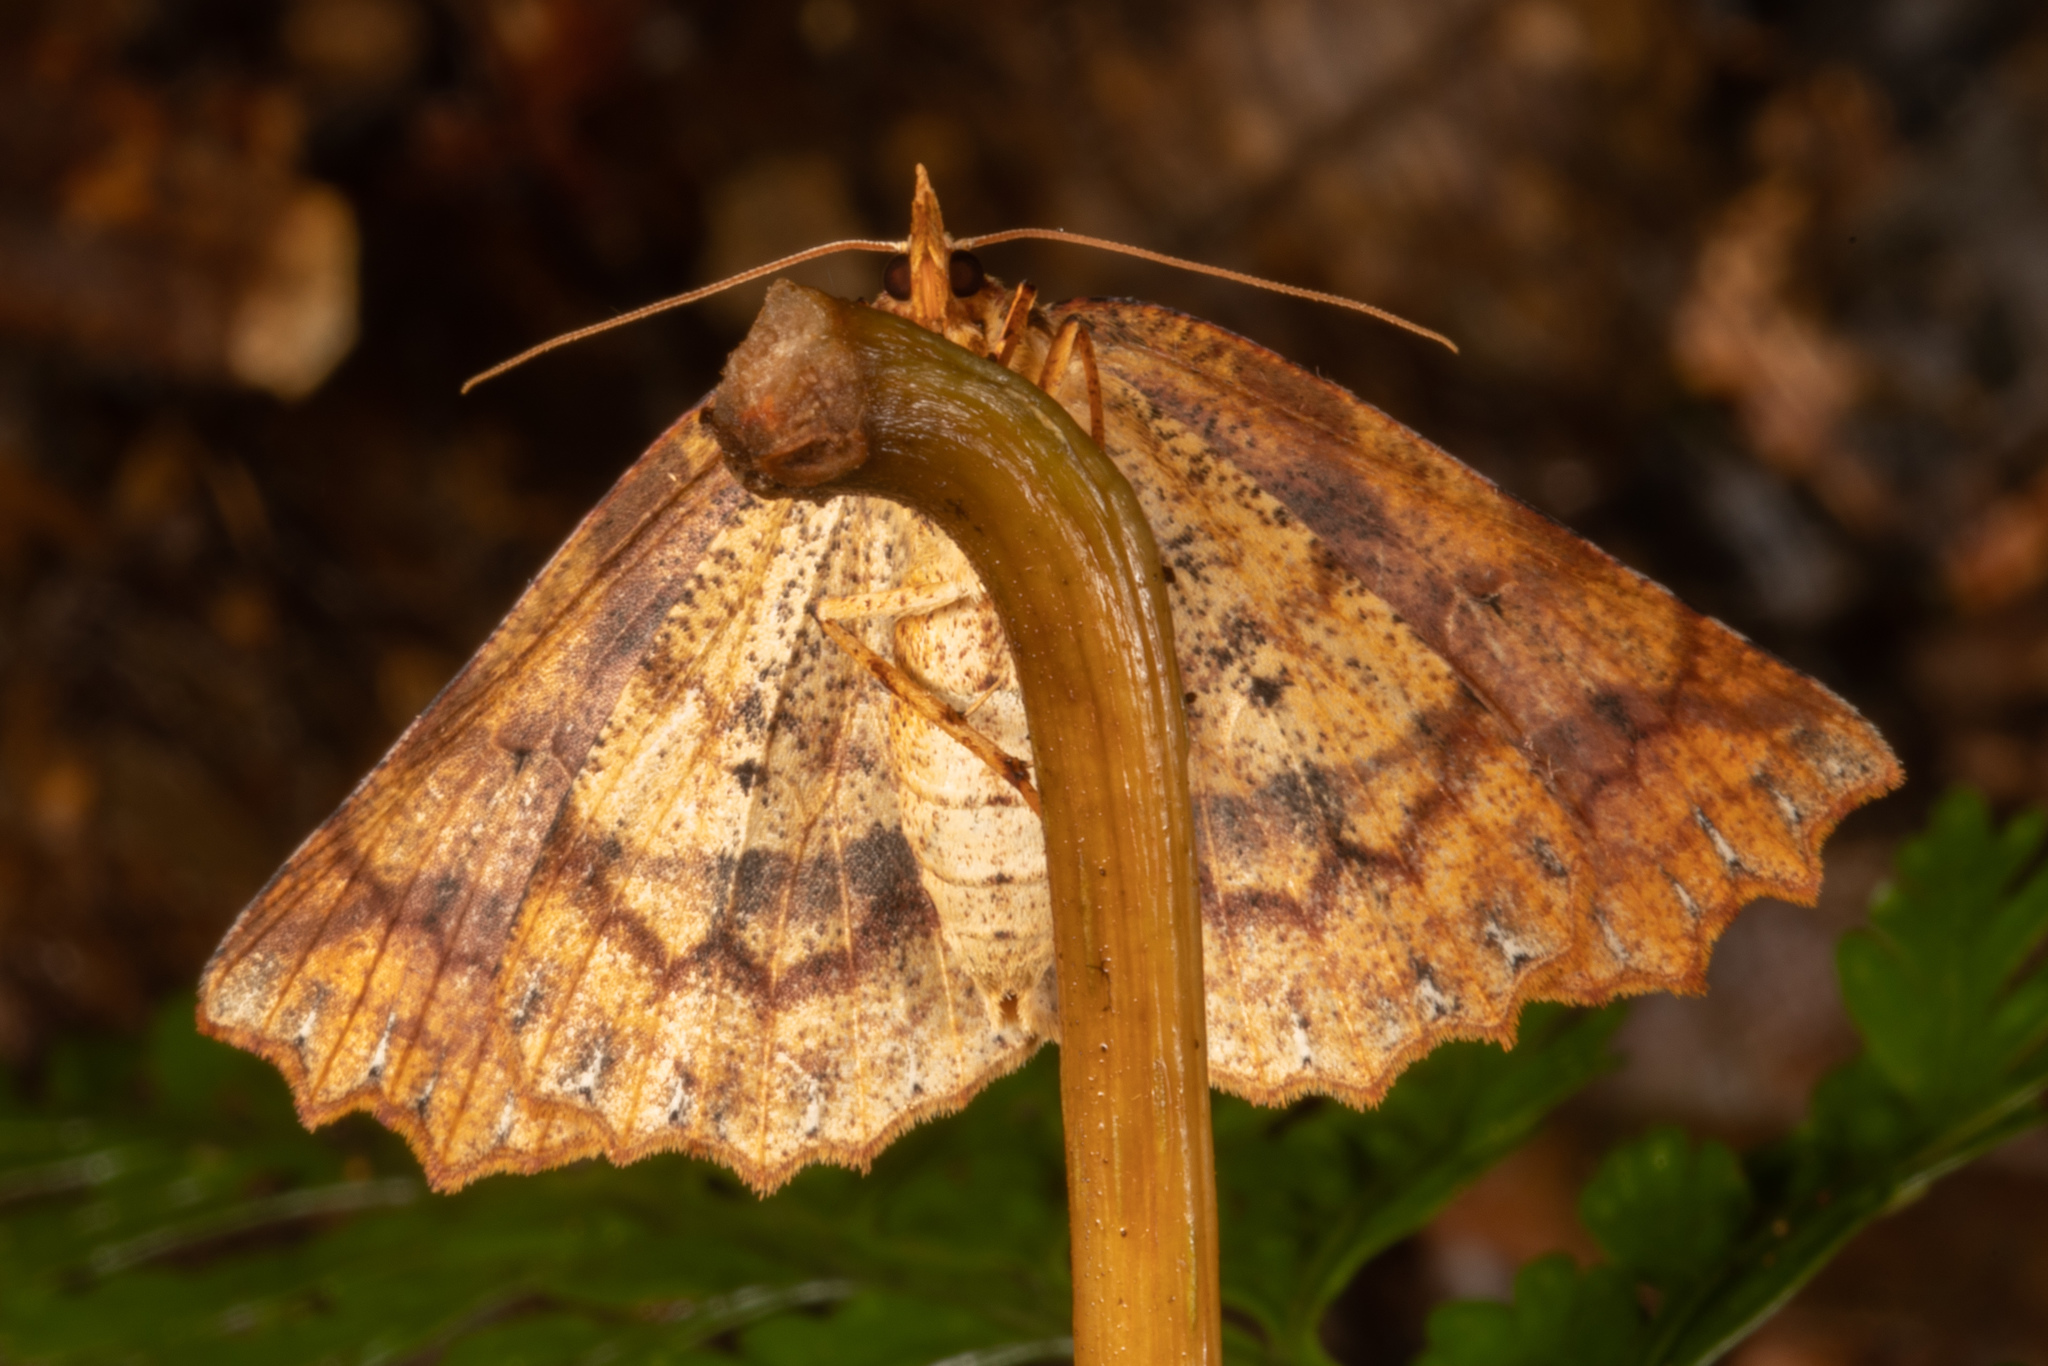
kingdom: Animalia
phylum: Arthropoda
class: Insecta
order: Lepidoptera
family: Geometridae
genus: Ischalis
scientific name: Ischalis variabilis
